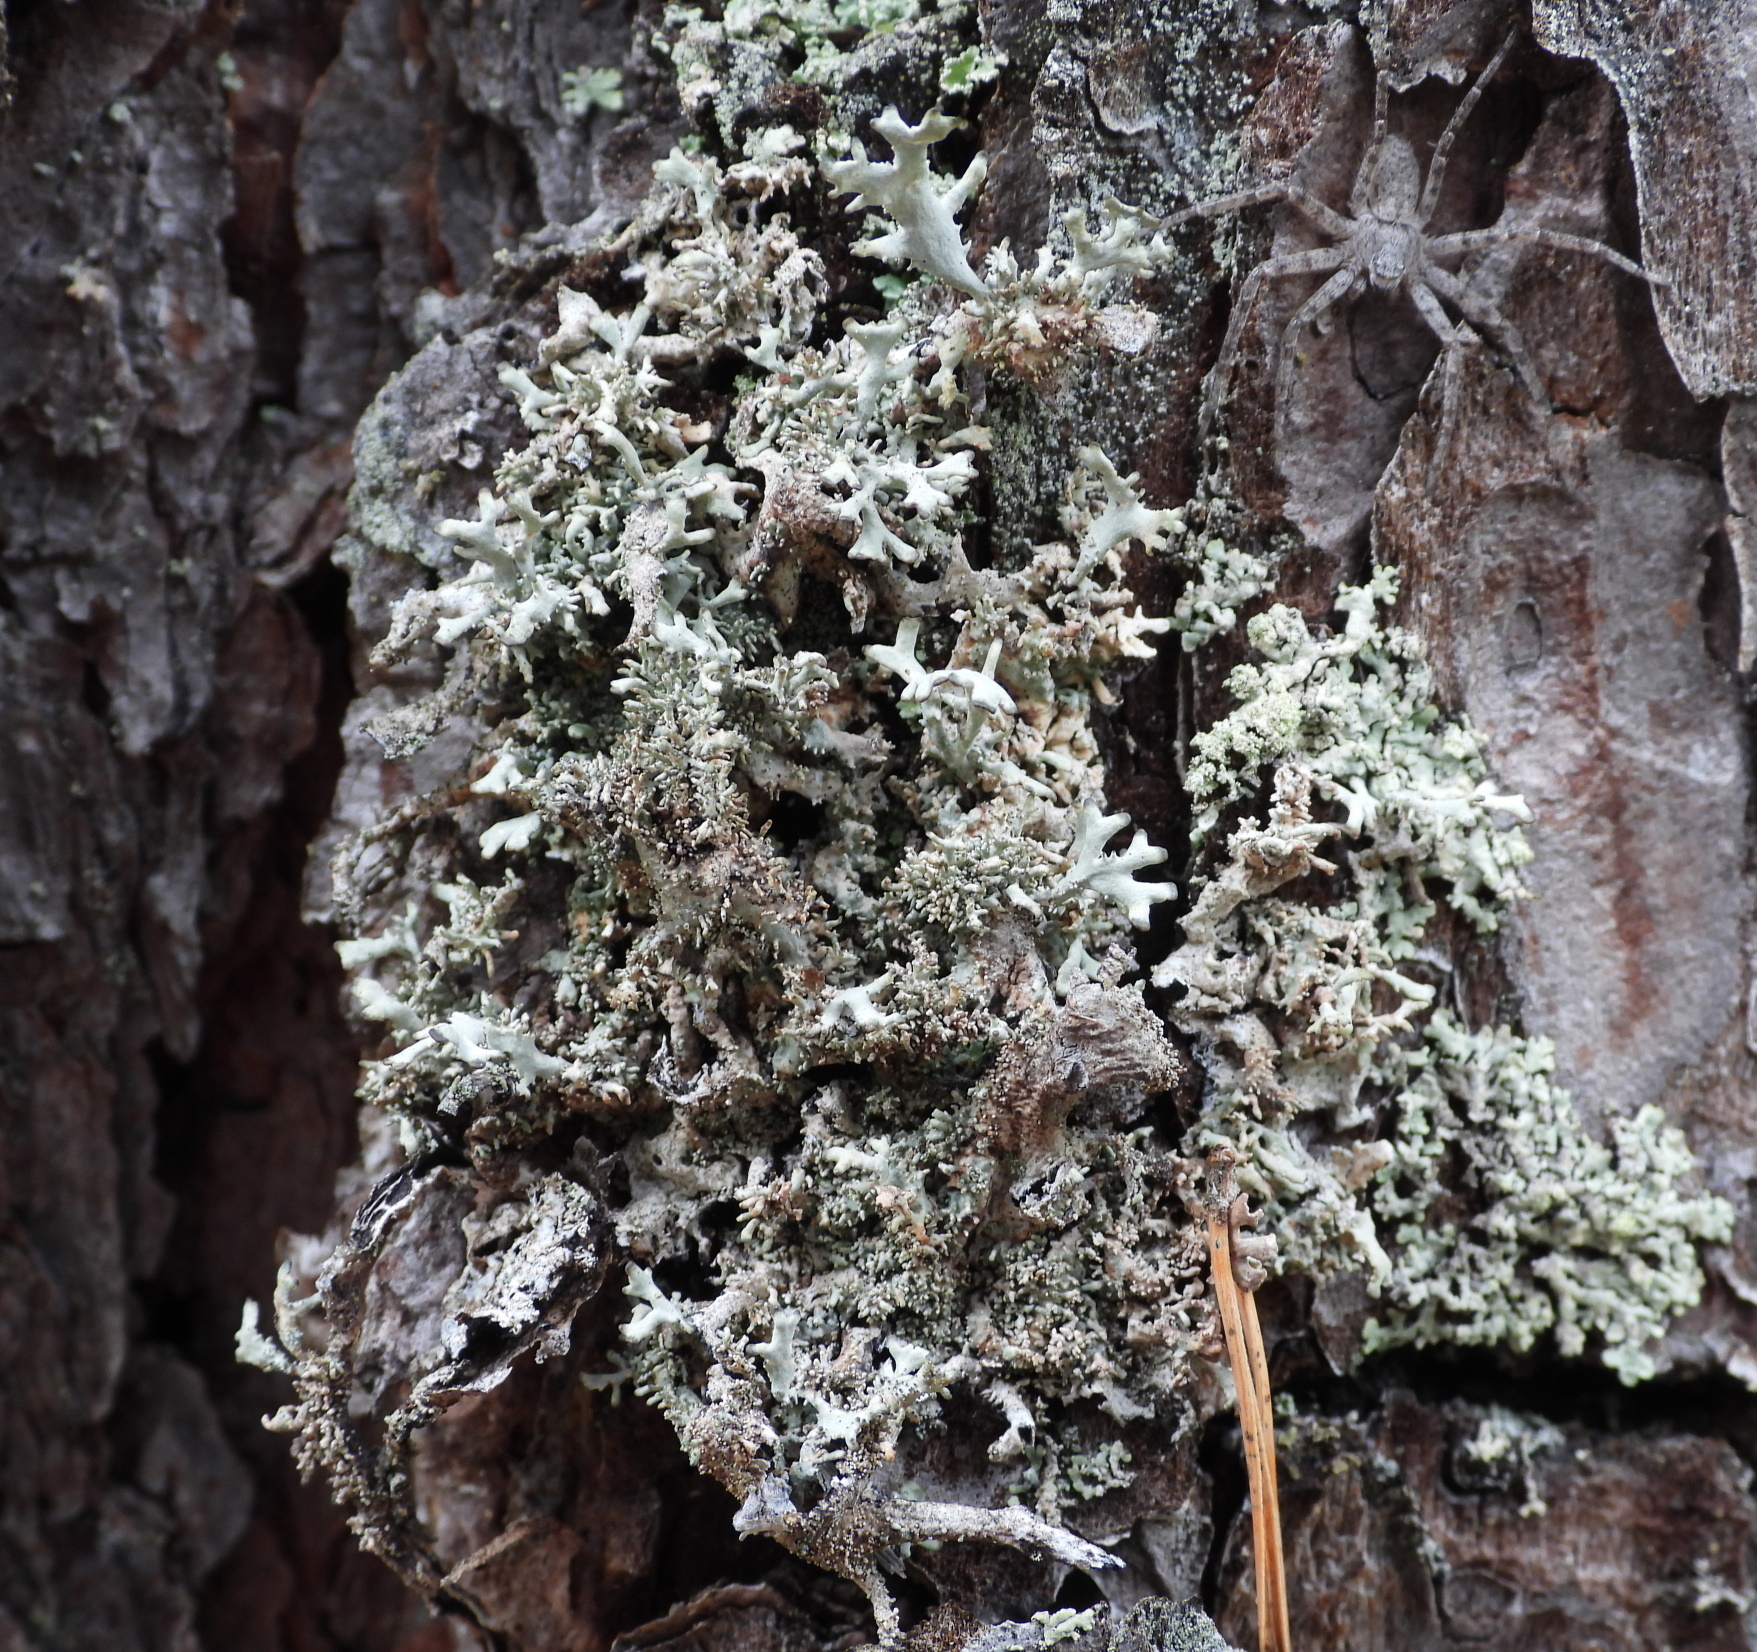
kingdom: Fungi
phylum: Ascomycota
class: Lecanoromycetes
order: Lecanorales
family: Parmeliaceae
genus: Pseudevernia
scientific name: Pseudevernia furfuracea
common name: Tree moss
